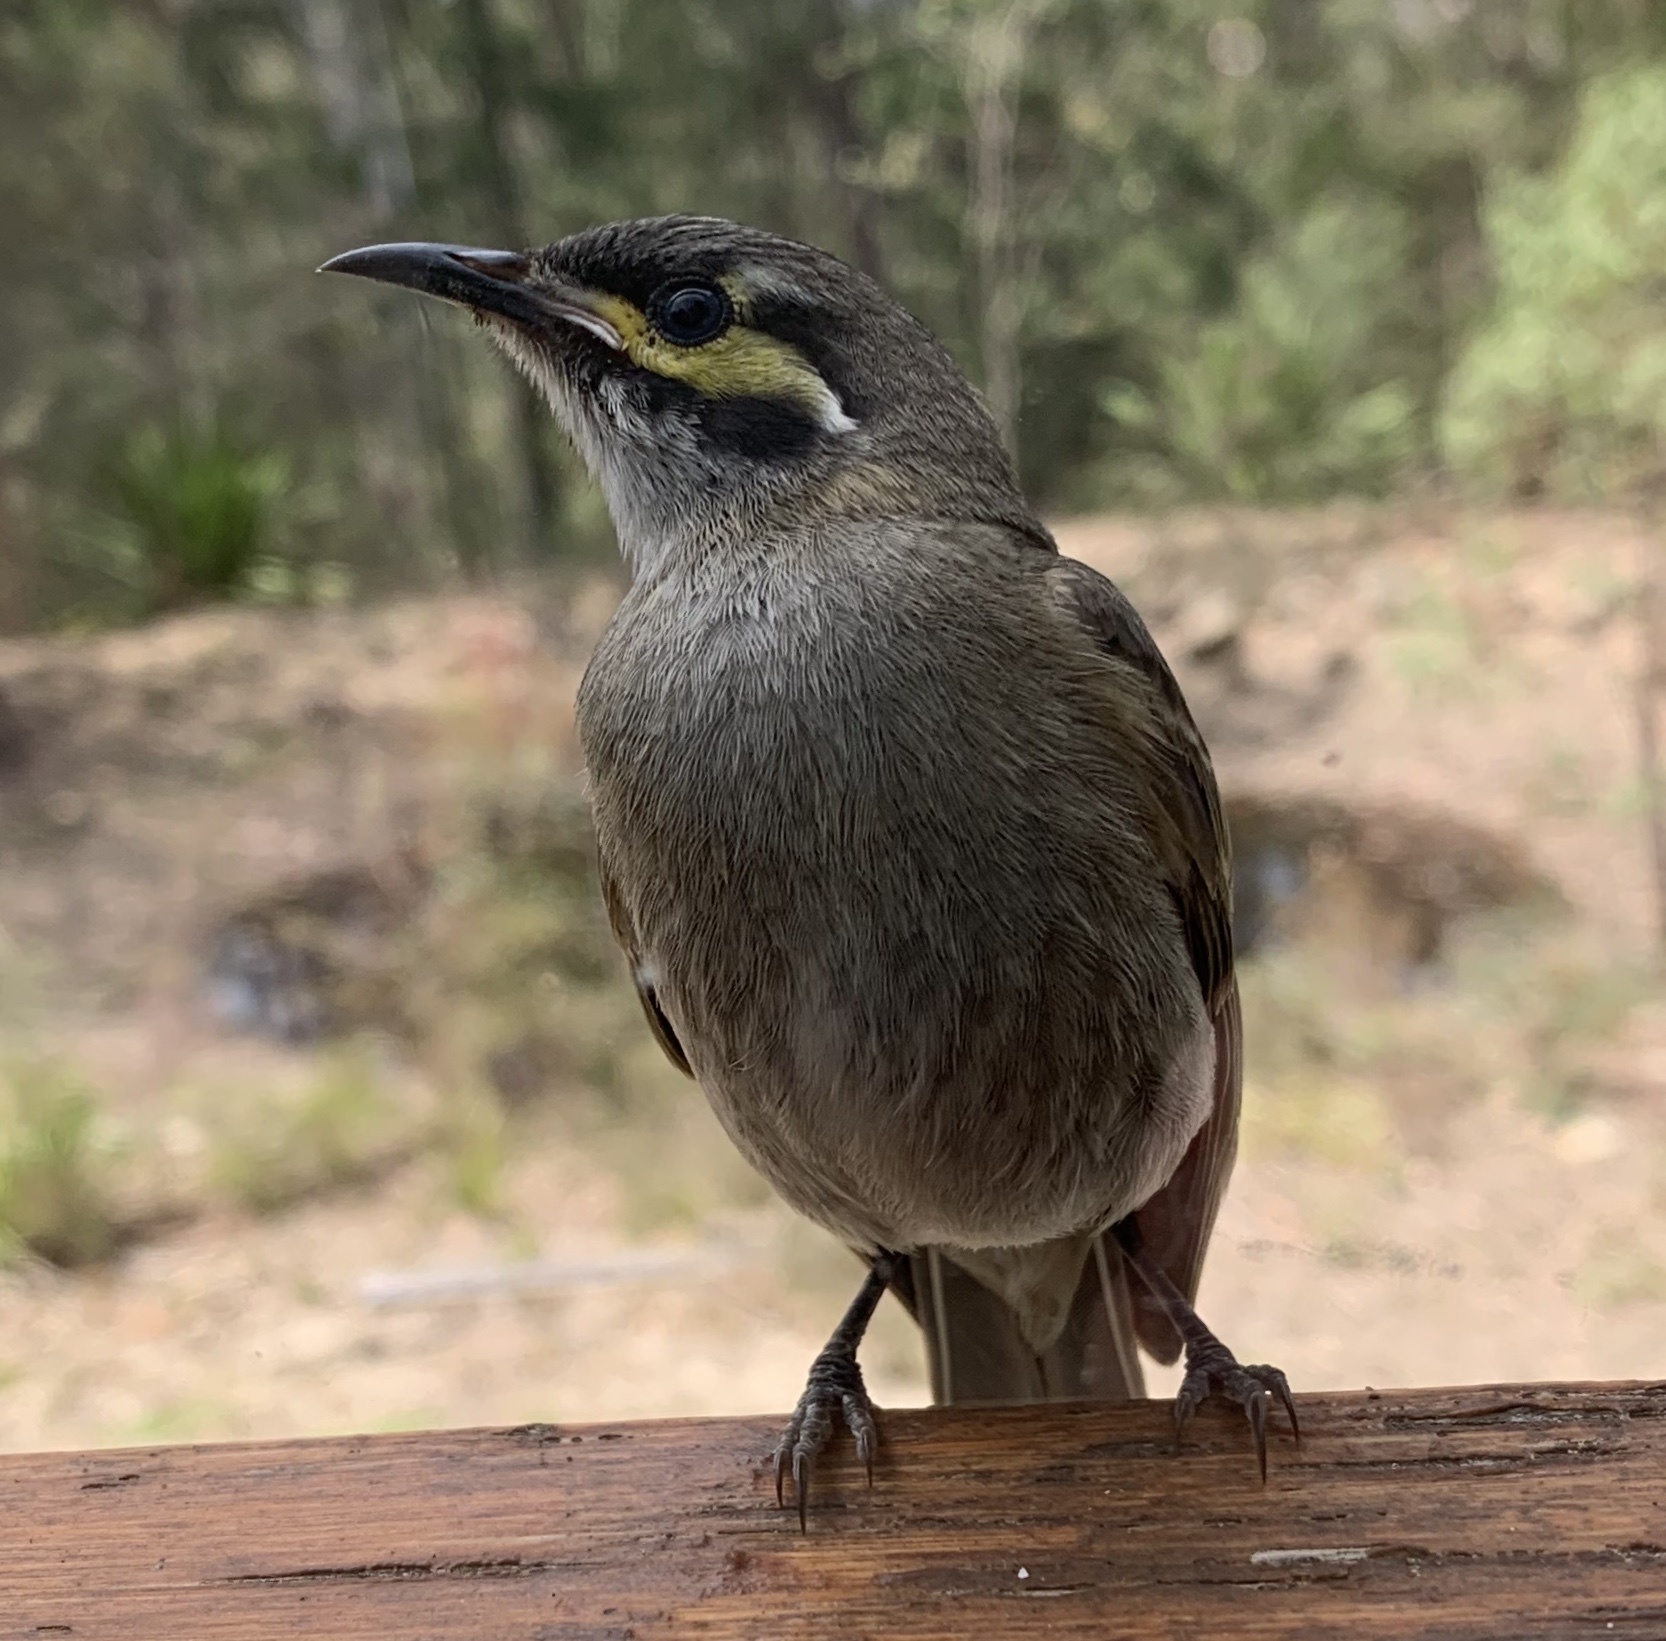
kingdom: Animalia
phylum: Chordata
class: Aves
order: Passeriformes
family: Meliphagidae
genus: Caligavis
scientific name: Caligavis chrysops
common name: Yellow-faced honeyeater
